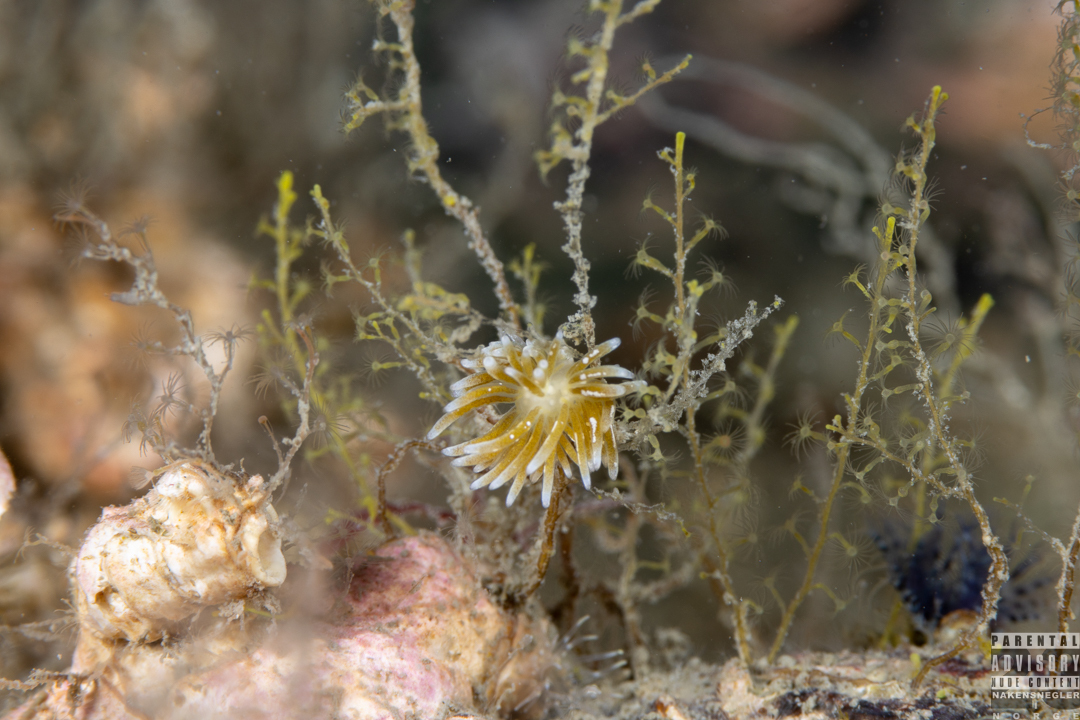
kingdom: Animalia
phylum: Mollusca
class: Gastropoda
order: Nudibranchia
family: Trinchesiidae
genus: Zelentia
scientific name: Zelentia pustulata
